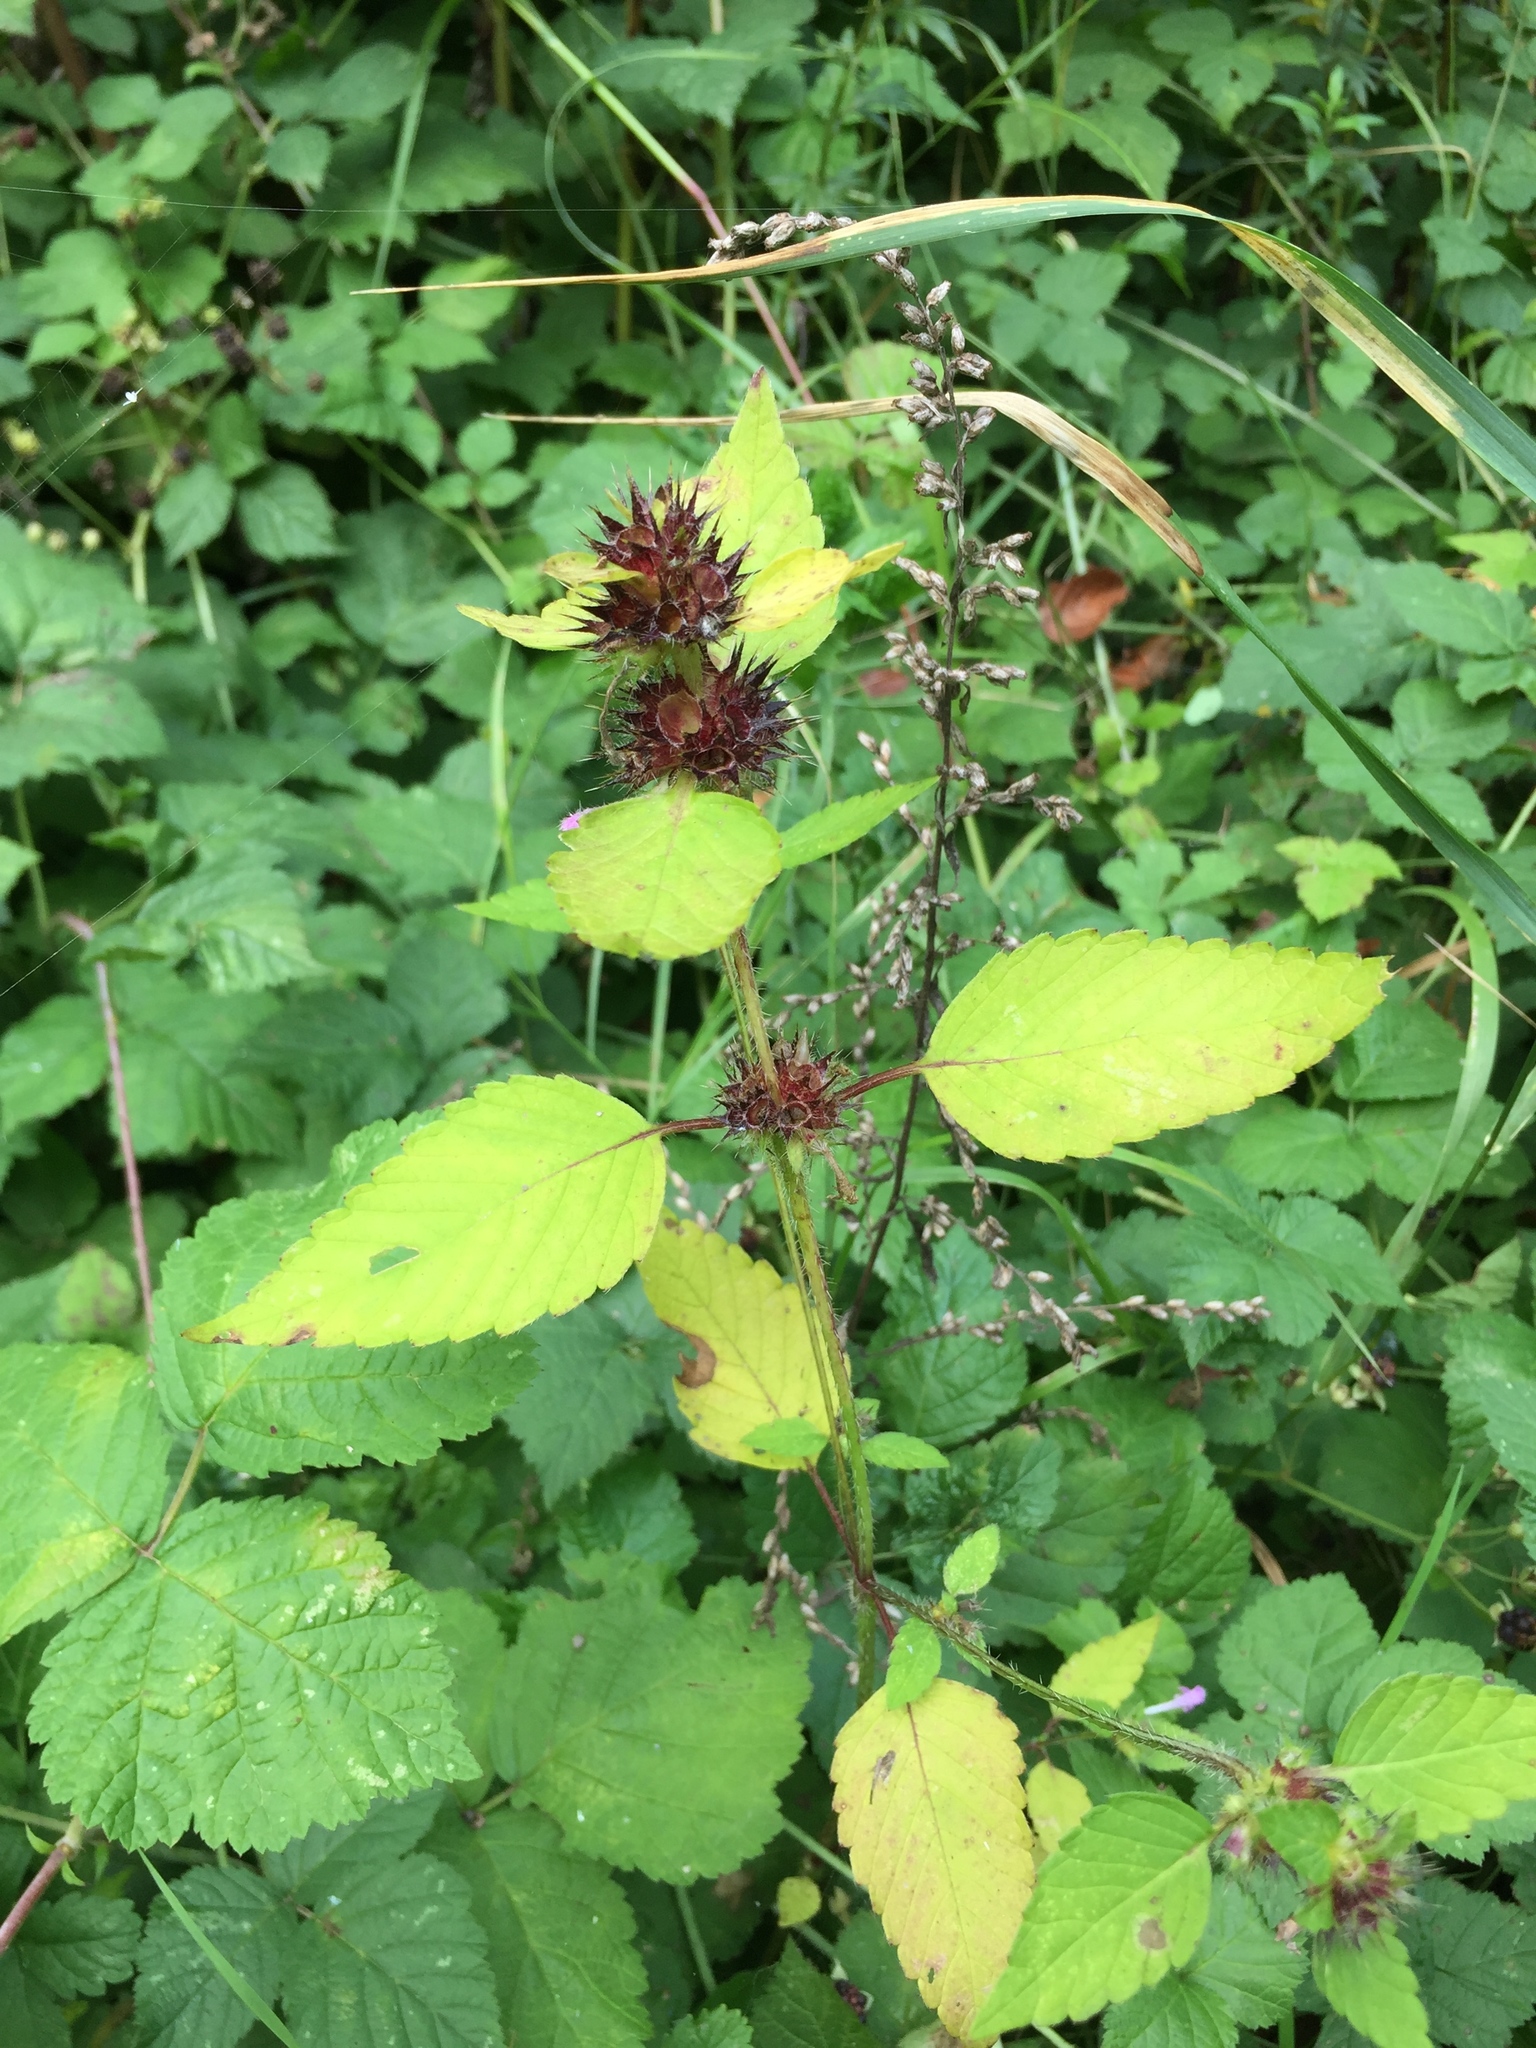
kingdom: Plantae
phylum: Tracheophyta
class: Magnoliopsida
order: Lamiales
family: Lamiaceae
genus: Galeopsis
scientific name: Galeopsis tetrahit
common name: Common hemp-nettle
